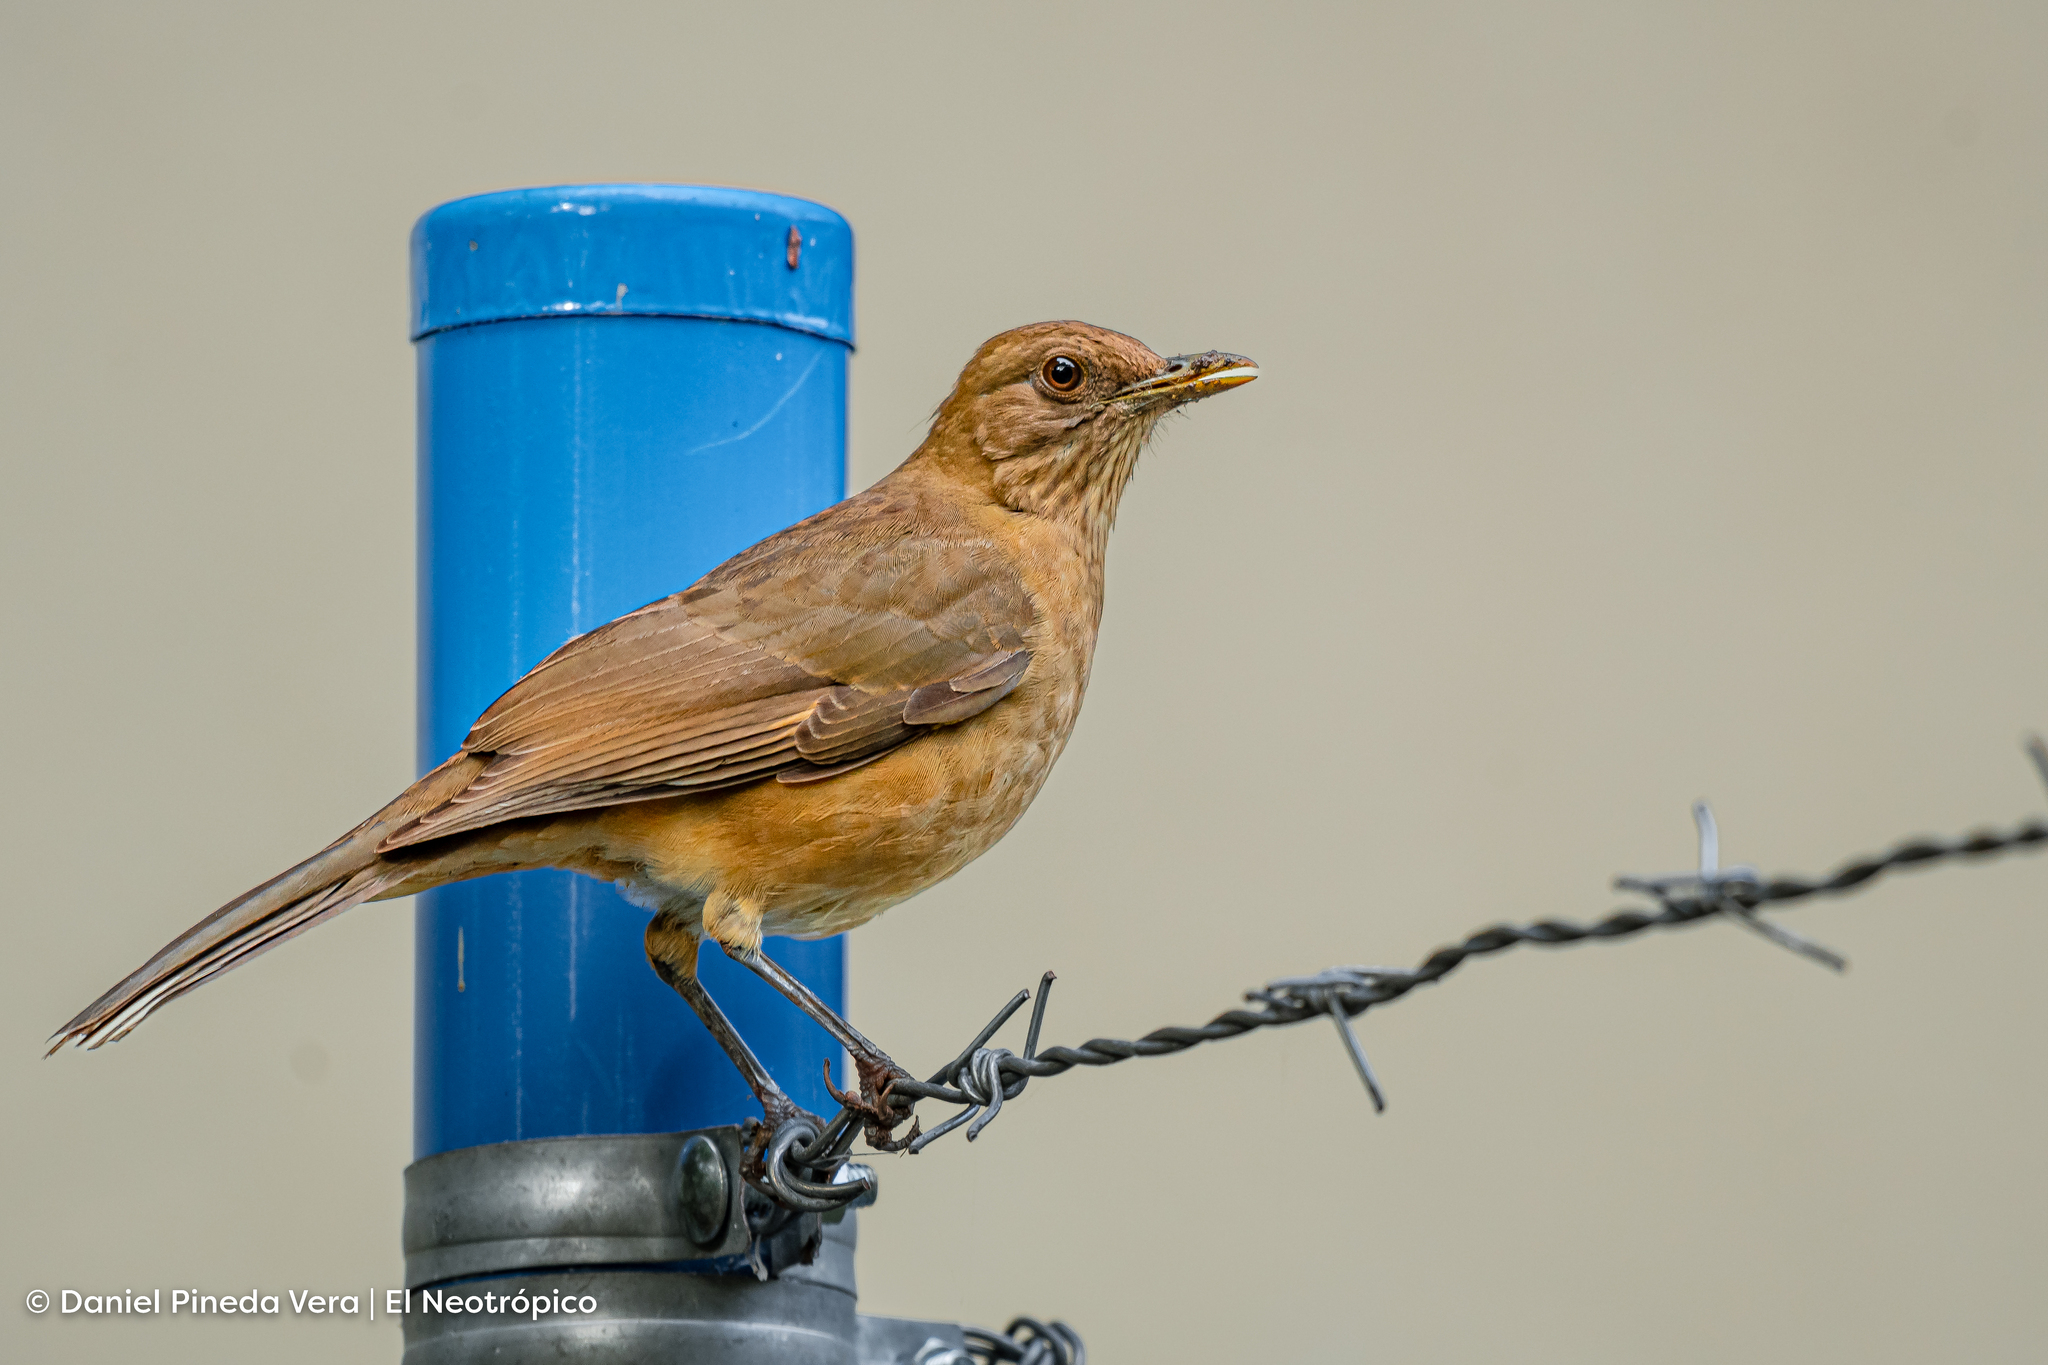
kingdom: Animalia
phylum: Chordata
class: Aves
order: Passeriformes
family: Turdidae
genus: Turdus
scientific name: Turdus grayi
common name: Clay-colored thrush
